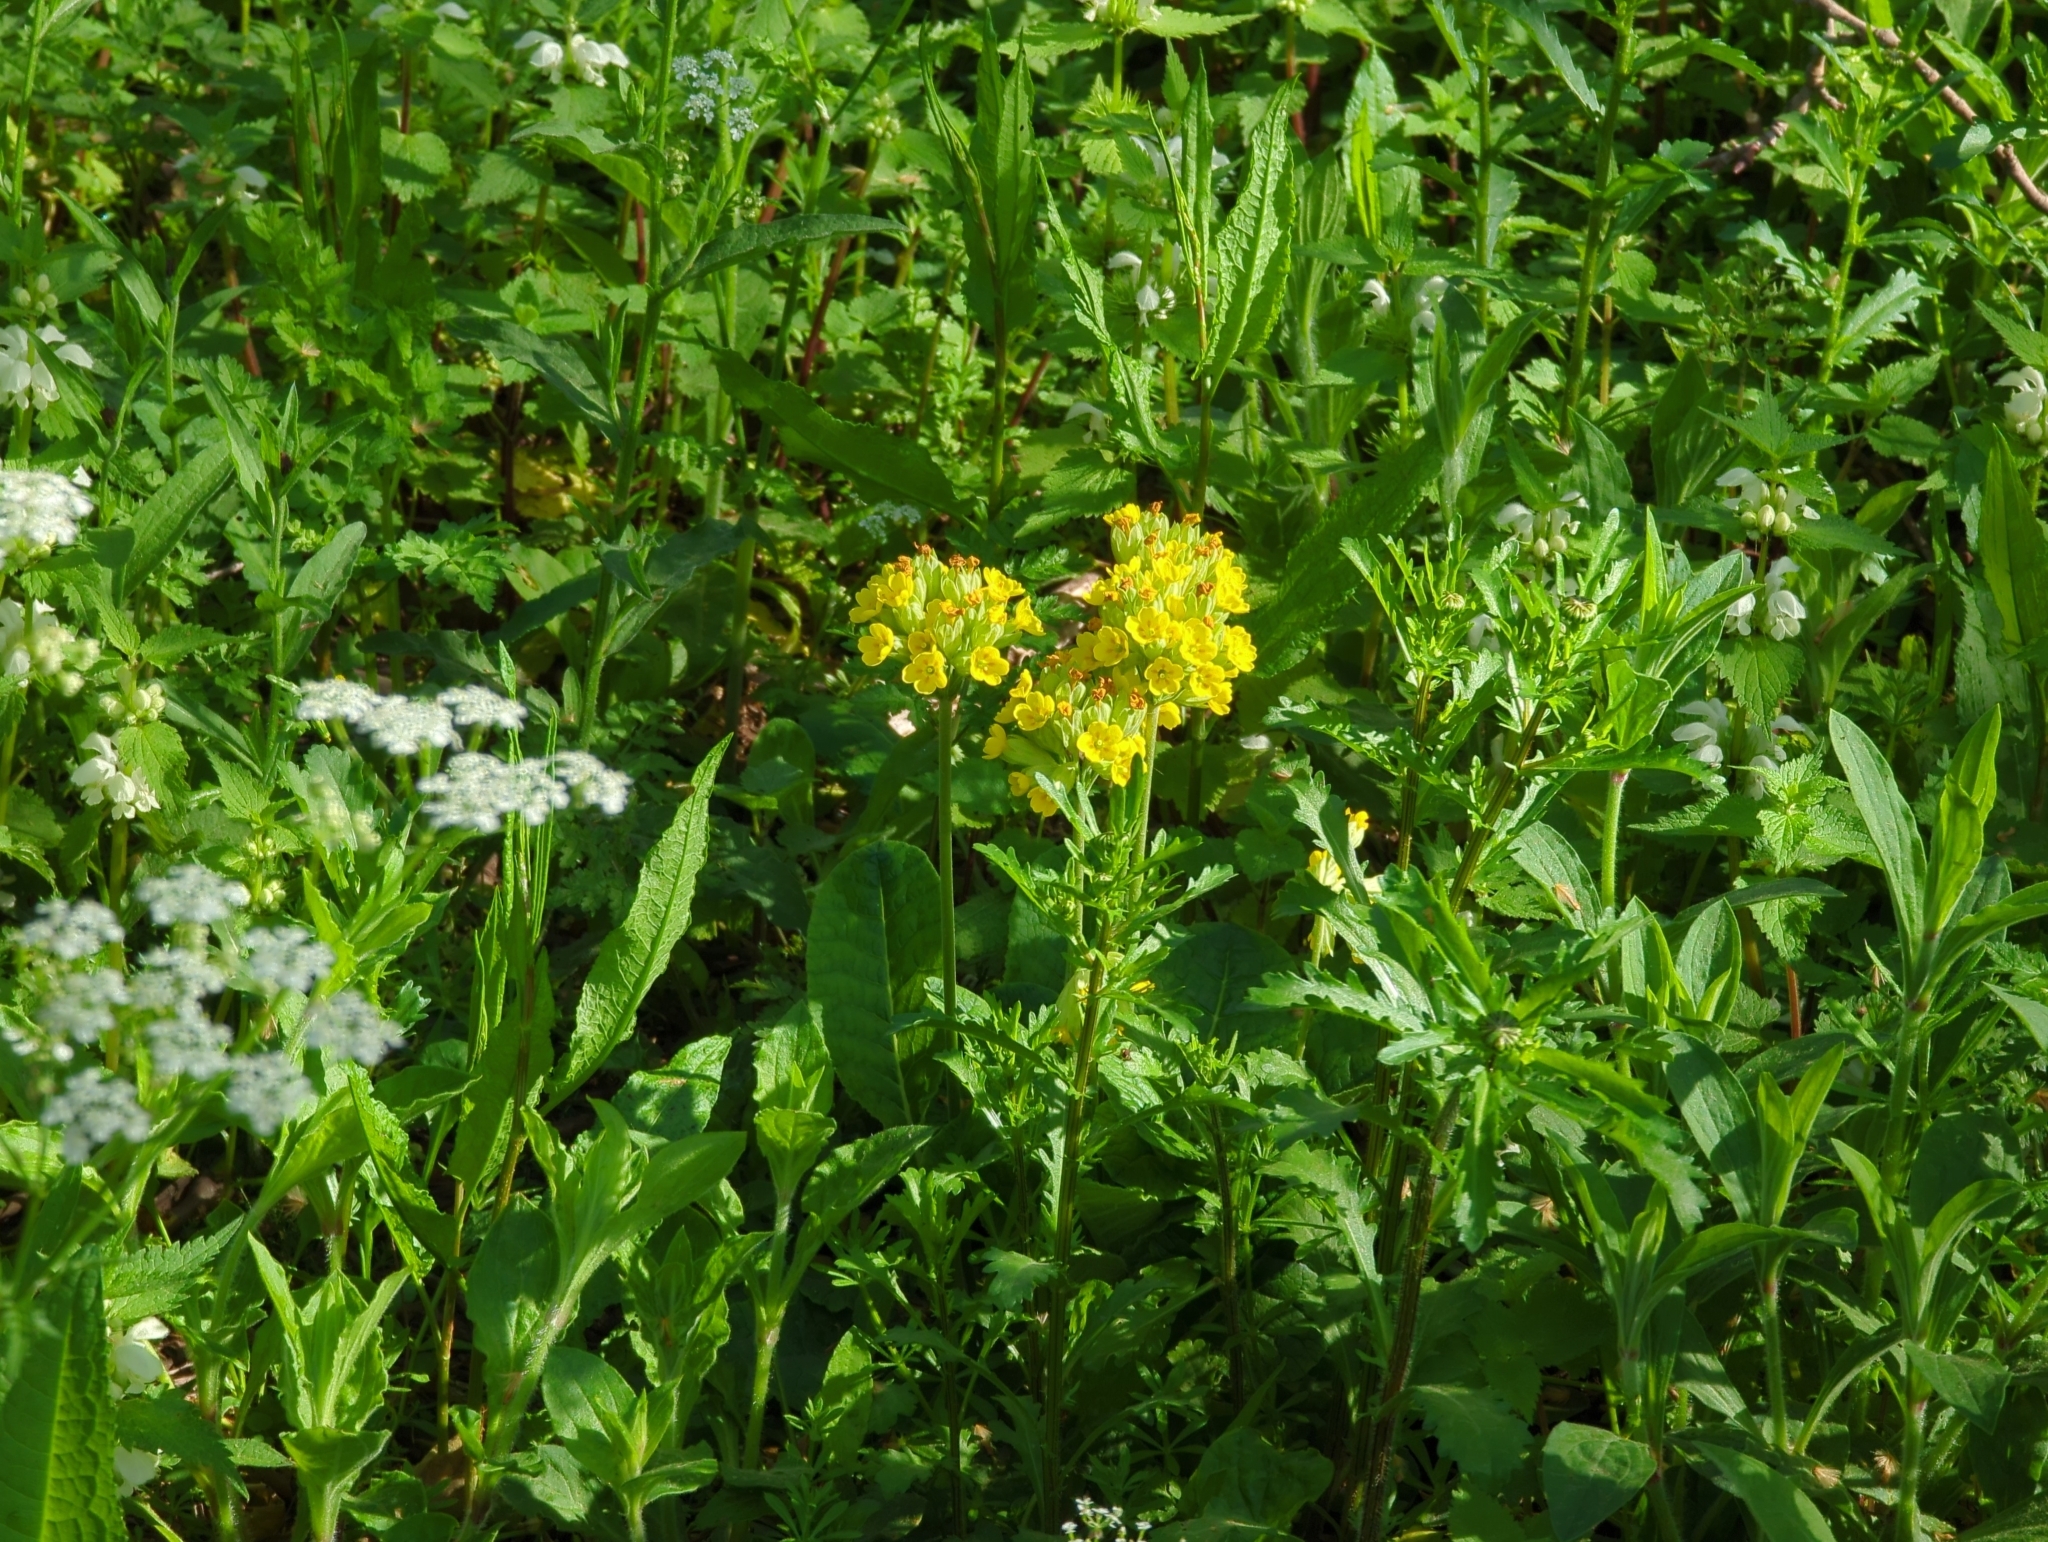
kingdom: Plantae
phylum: Tracheophyta
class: Magnoliopsida
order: Ericales
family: Primulaceae
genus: Primula
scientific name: Primula veris
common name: Cowslip
